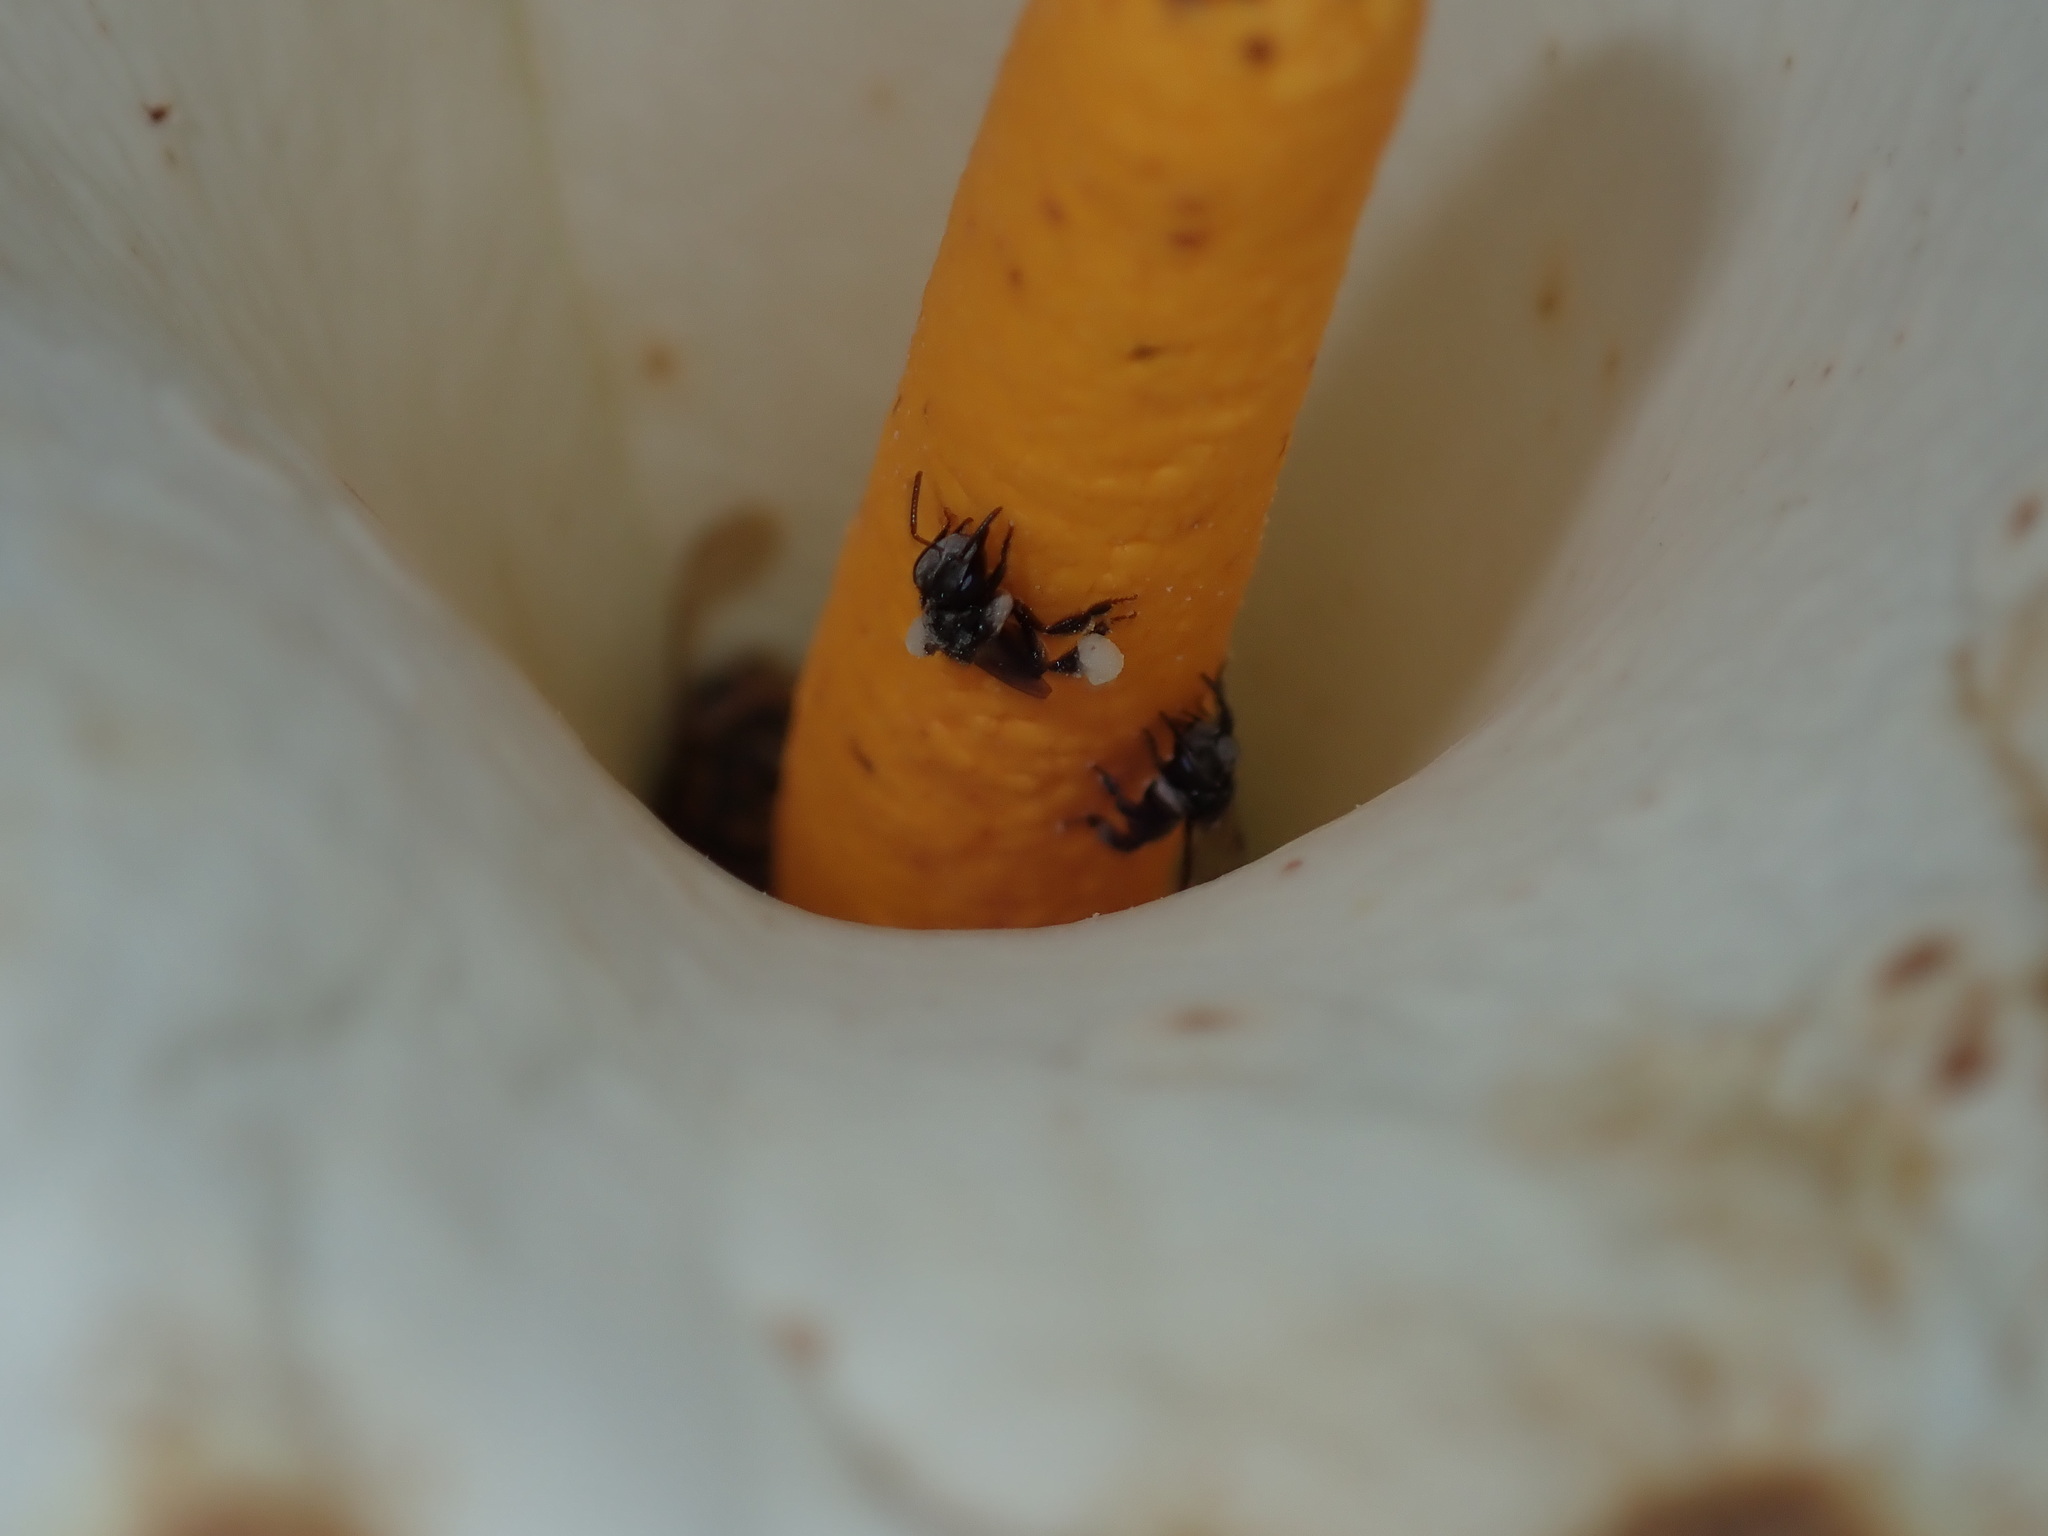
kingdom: Animalia
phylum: Arthropoda
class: Insecta
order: Hymenoptera
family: Apidae
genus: Tetragonula
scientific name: Tetragonula carbonaria
